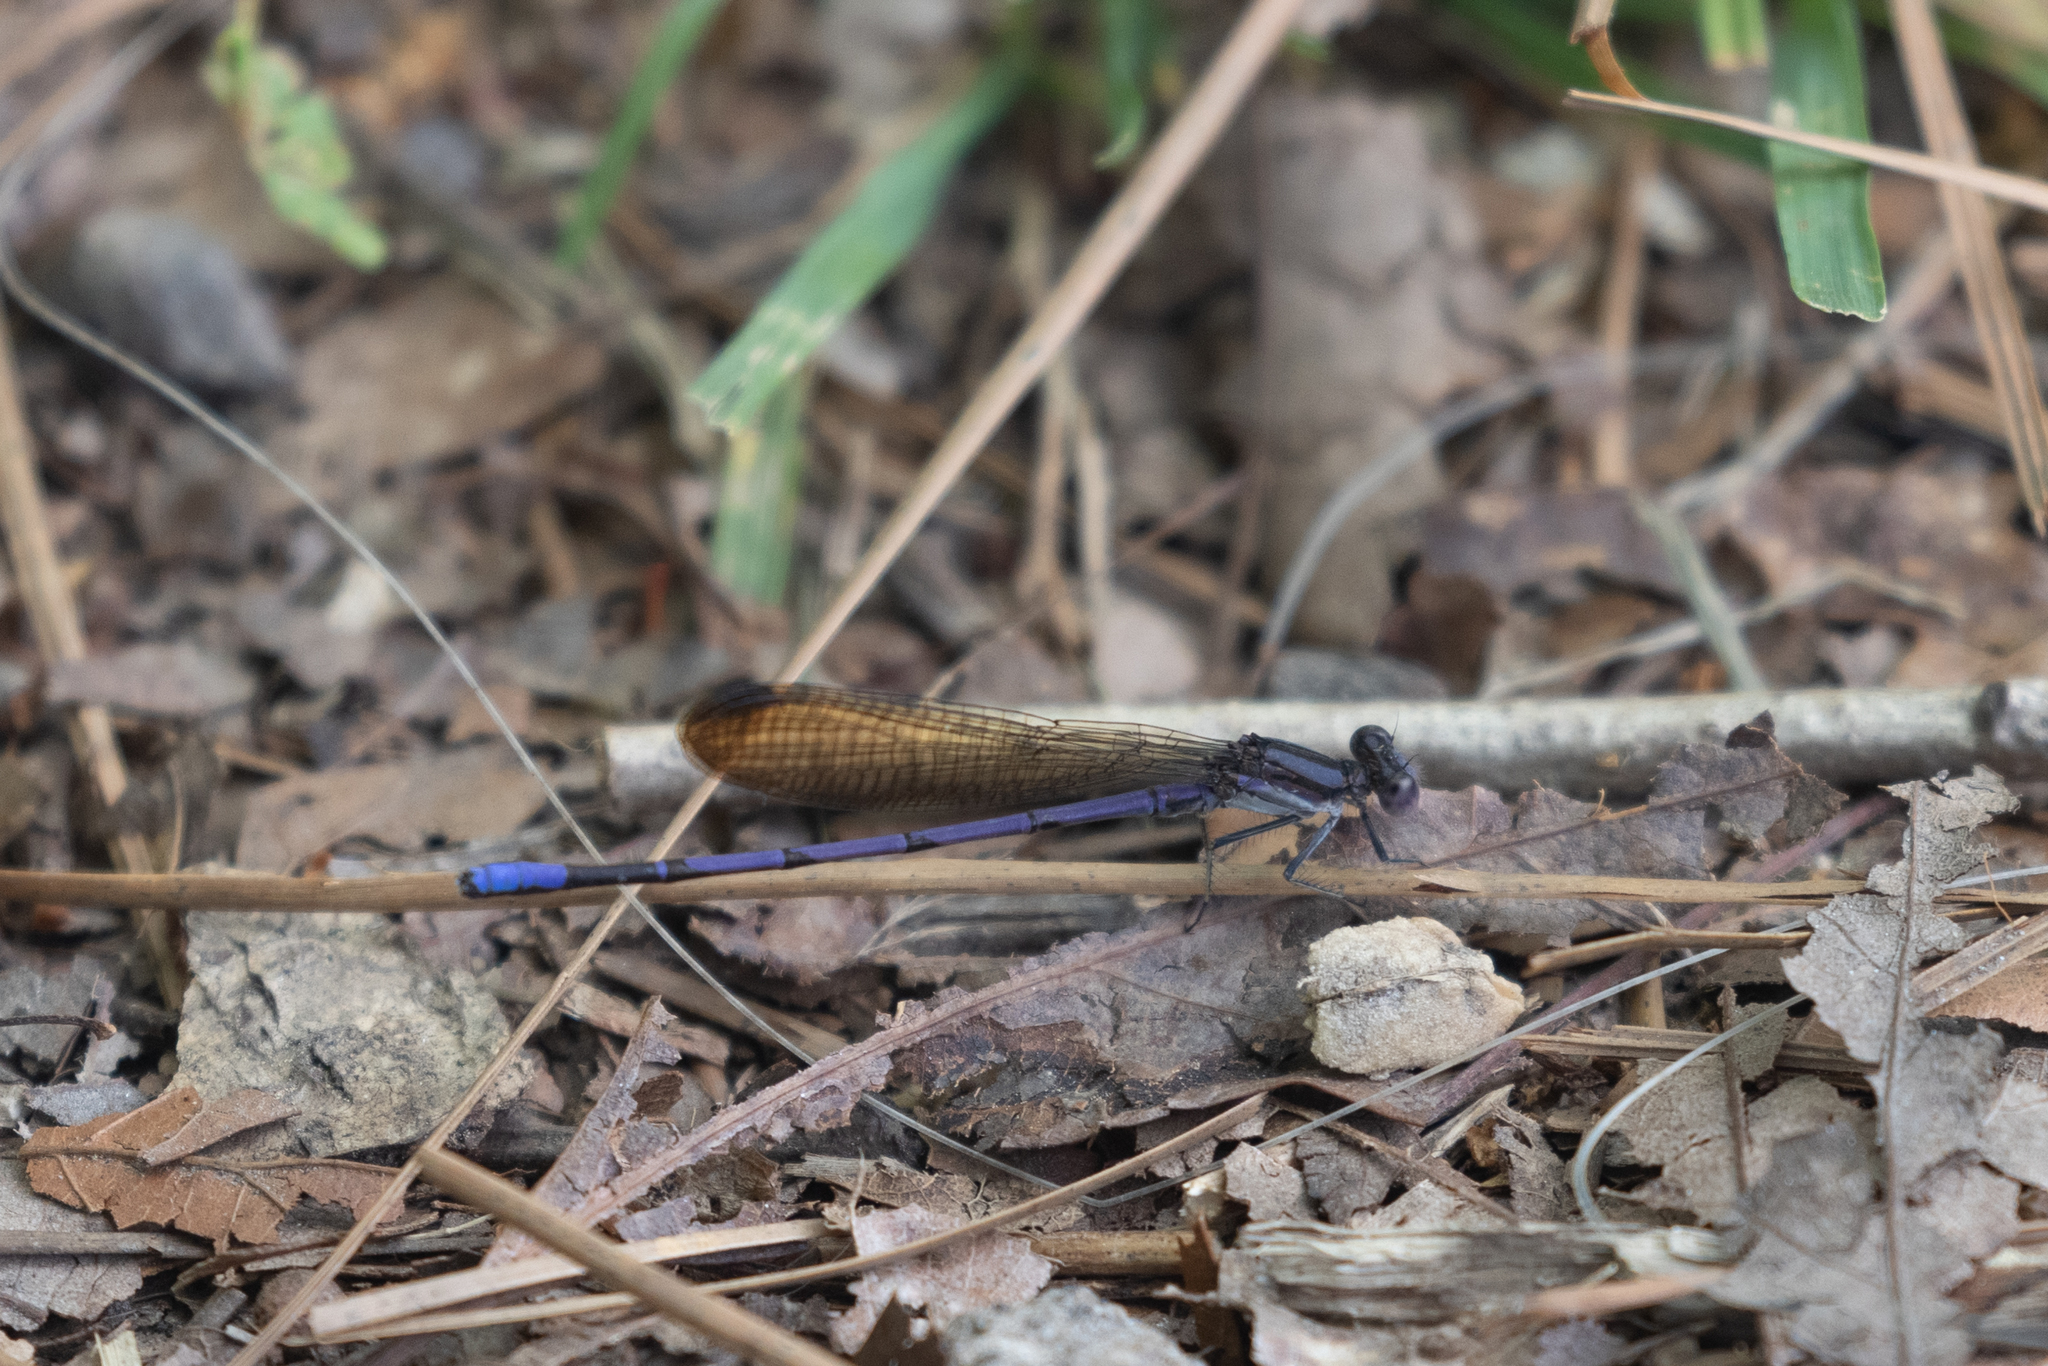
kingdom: Animalia
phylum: Arthropoda
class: Insecta
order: Odonata
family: Coenagrionidae
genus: Argia
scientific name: Argia fumipennis
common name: Variable dancer
